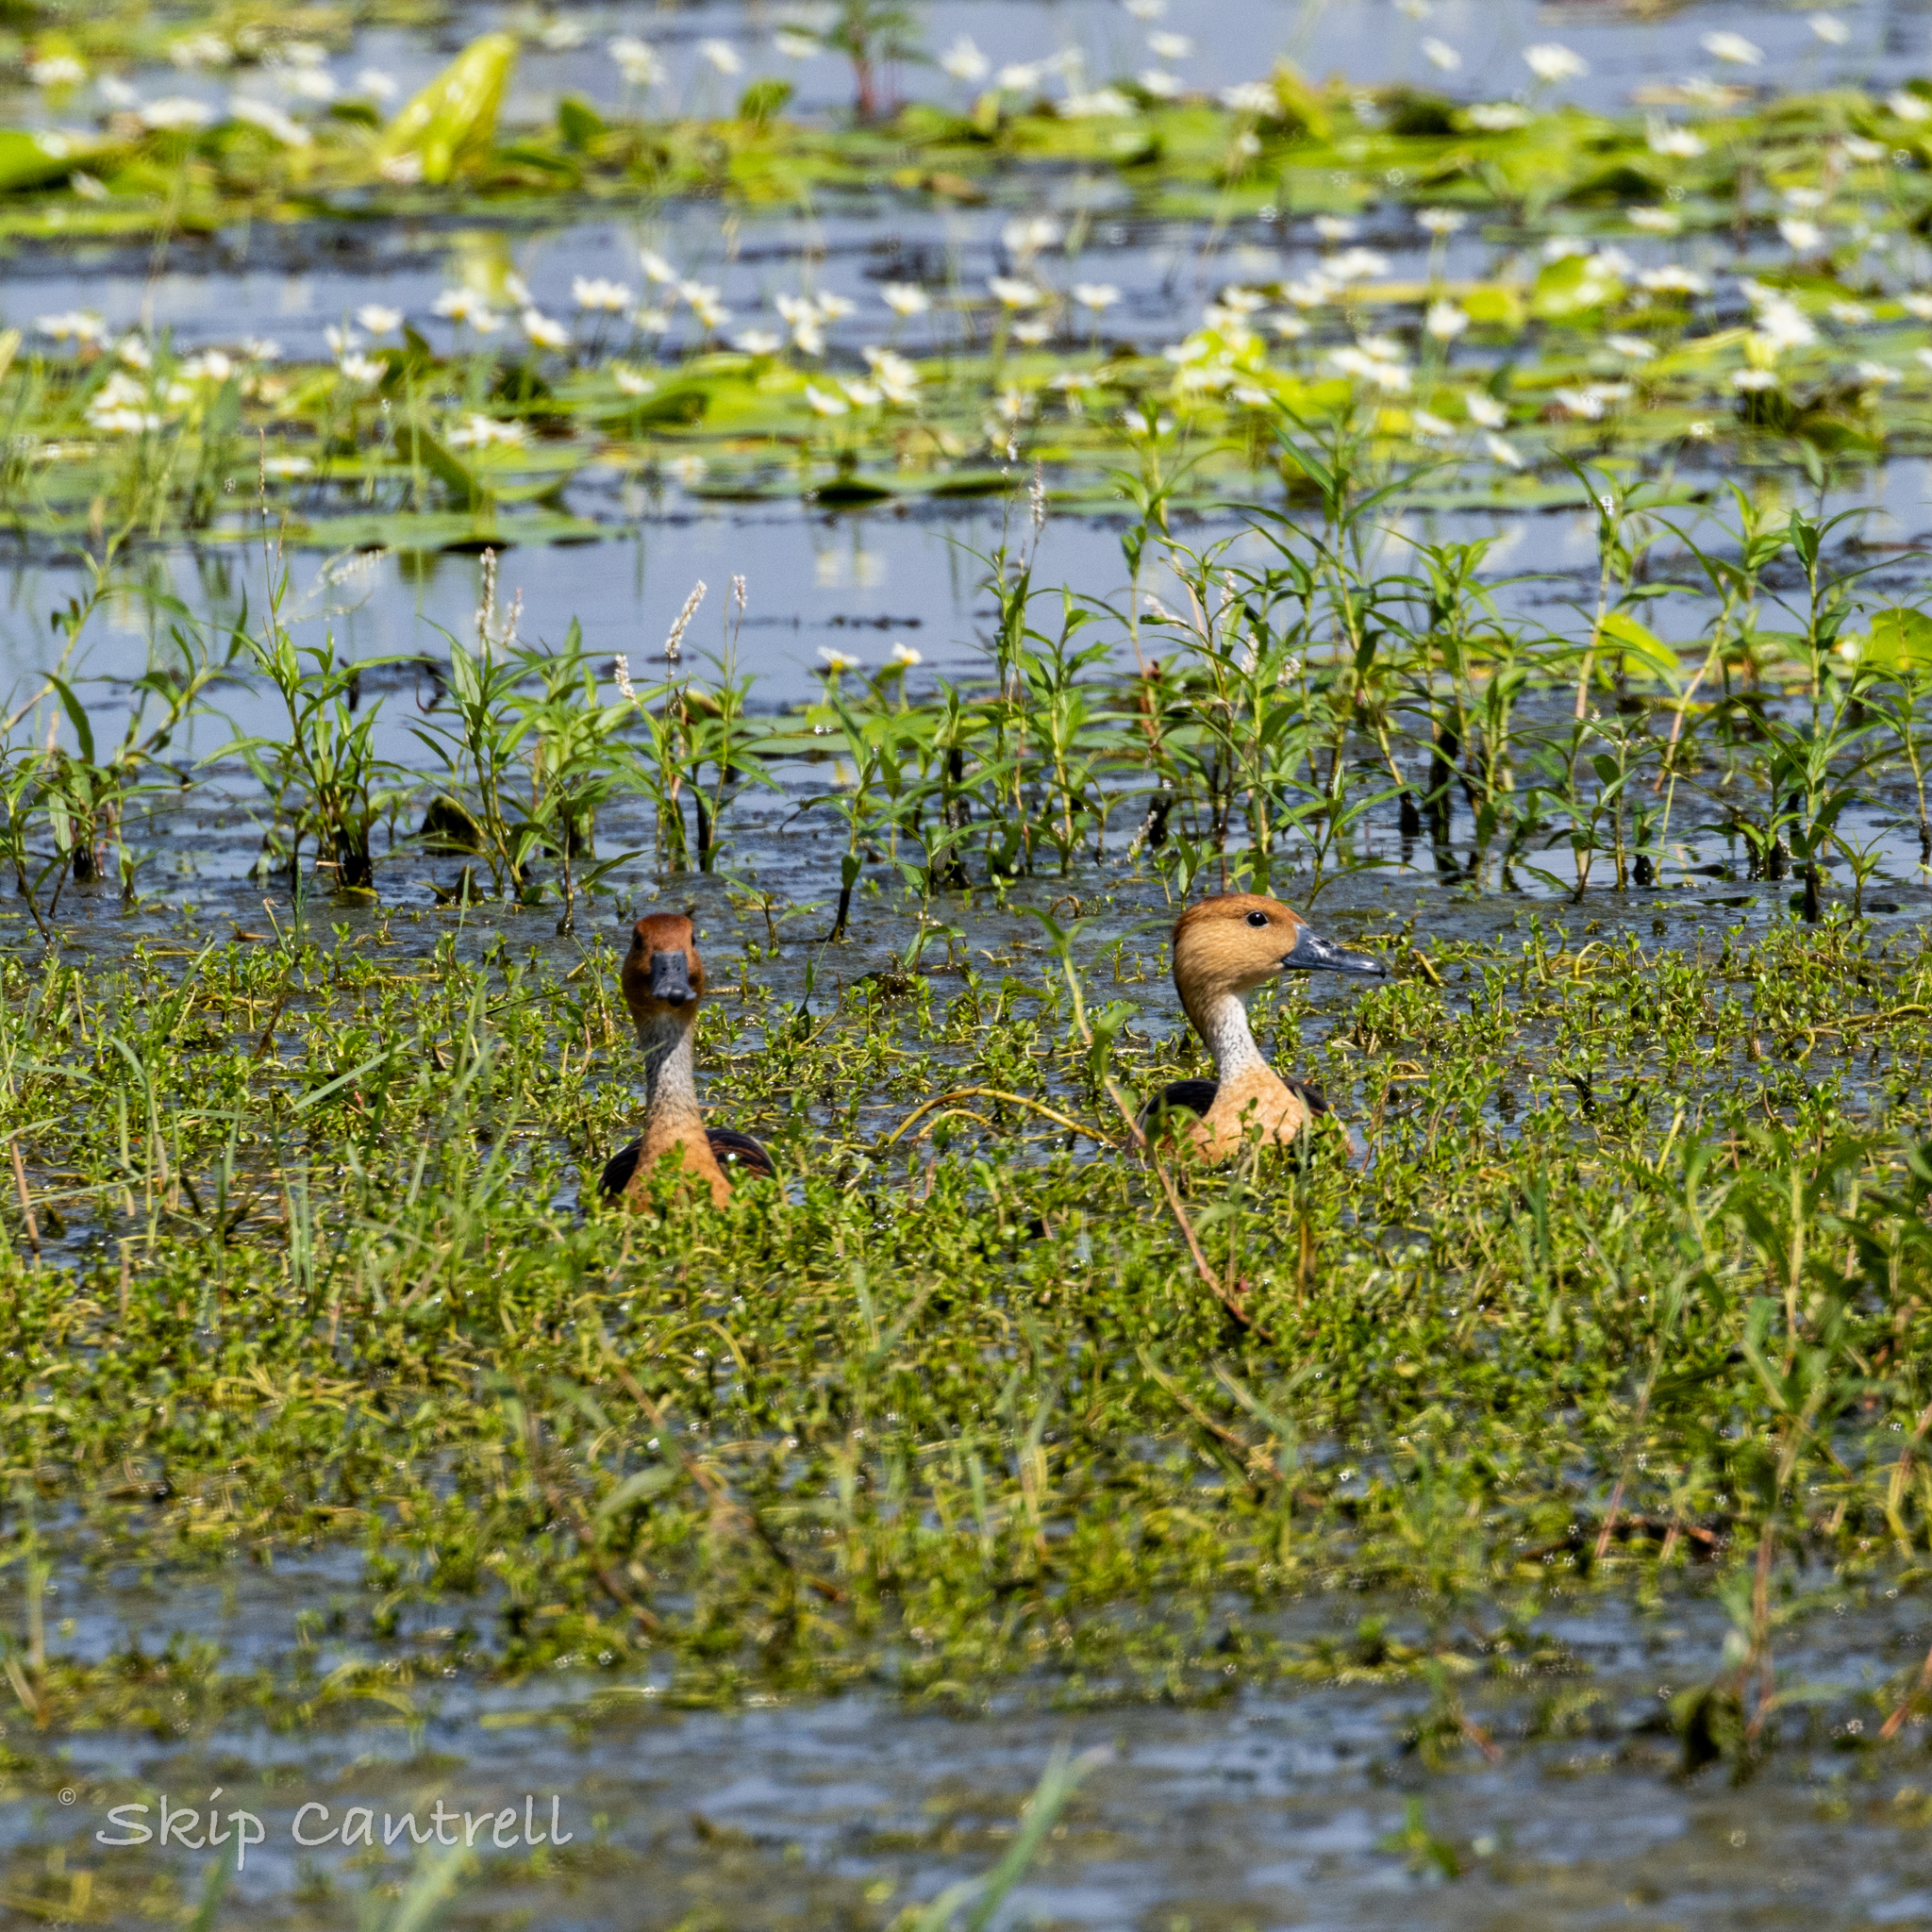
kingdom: Animalia
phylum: Chordata
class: Aves
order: Anseriformes
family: Anatidae
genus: Dendrocygna
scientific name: Dendrocygna bicolor
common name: Fulvous whistling duck
